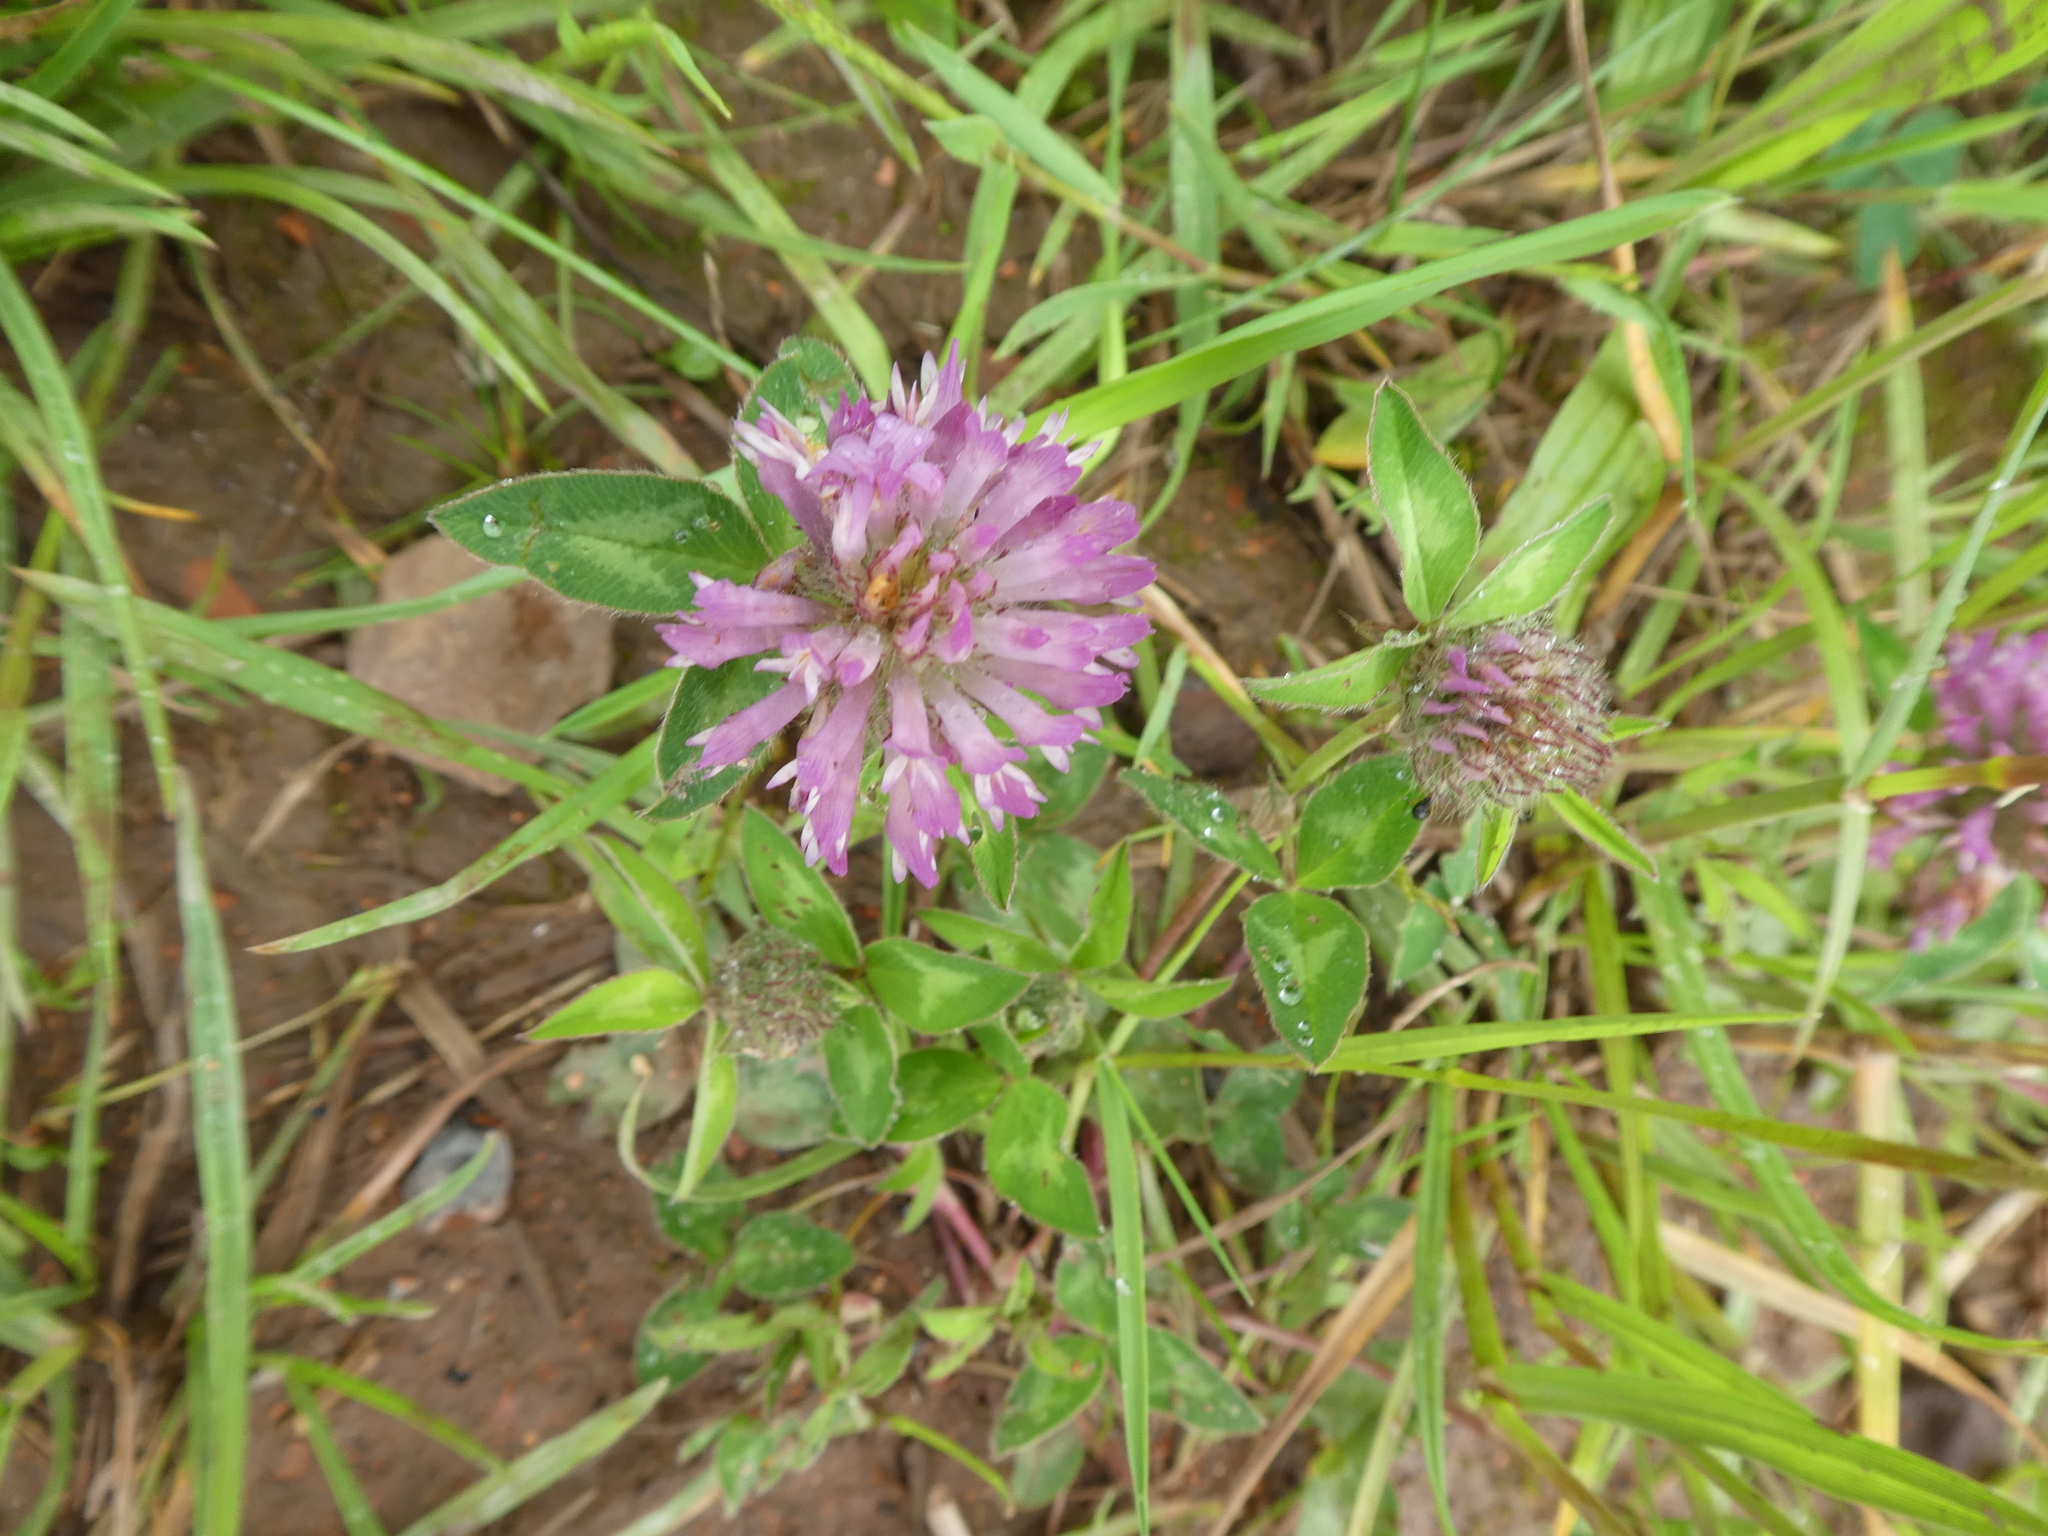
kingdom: Plantae
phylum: Tracheophyta
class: Magnoliopsida
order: Fabales
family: Fabaceae
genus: Trifolium
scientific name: Trifolium pratense
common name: Red clover
